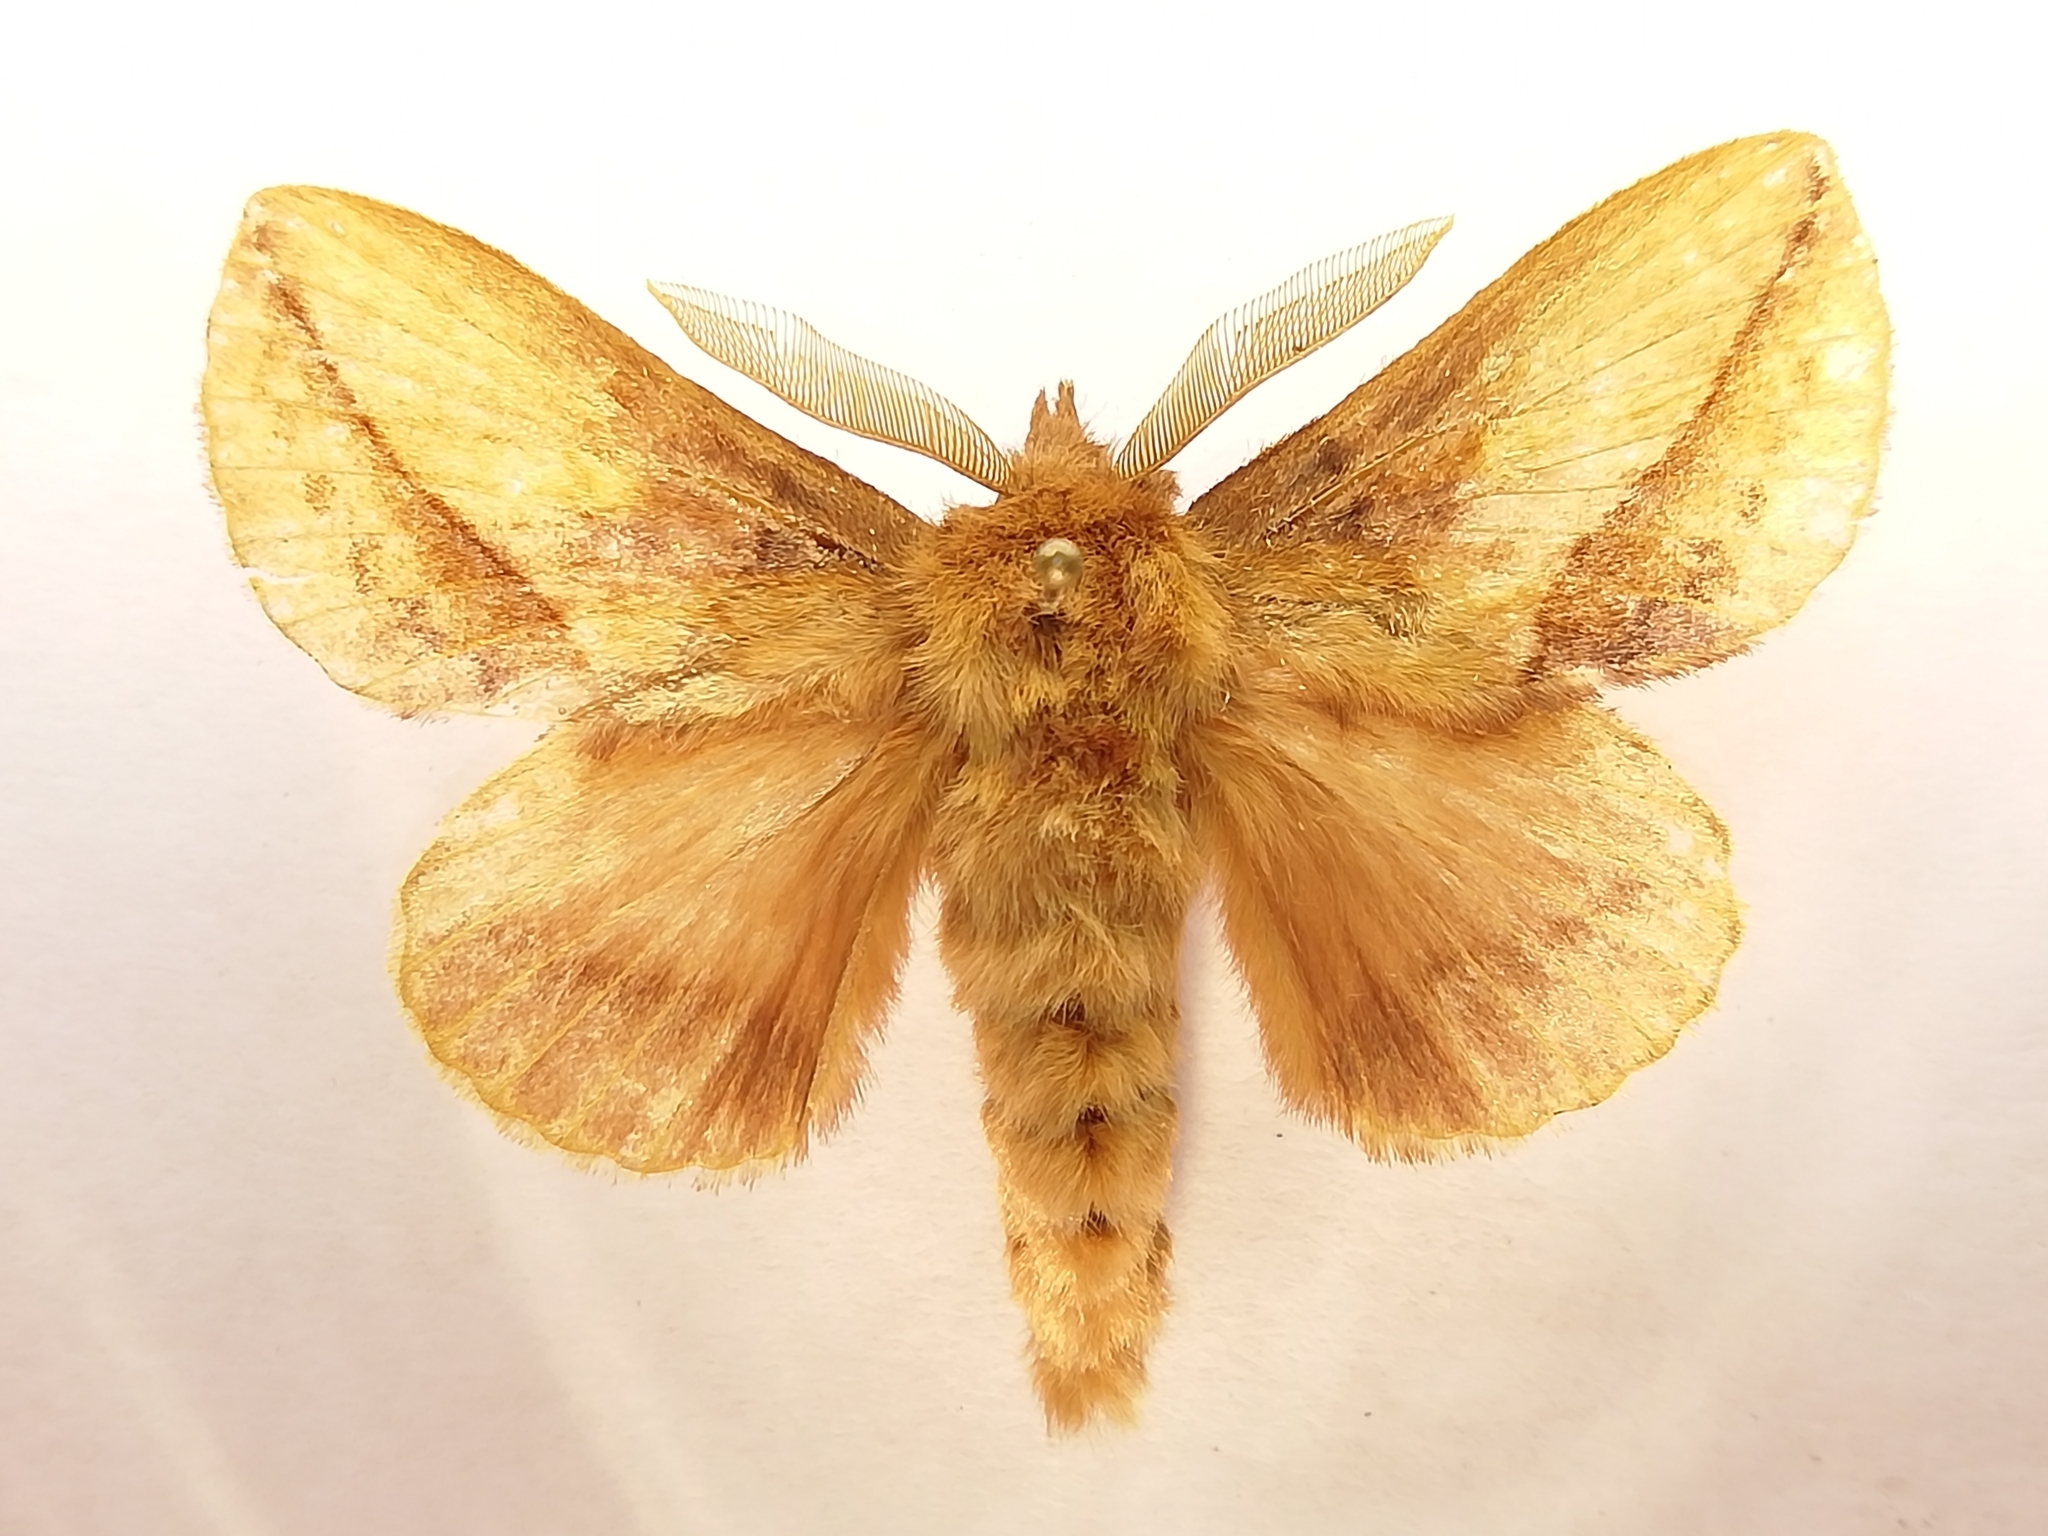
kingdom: Animalia
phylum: Arthropoda
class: Insecta
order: Lepidoptera
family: Lasiocampidae
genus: Euthrix
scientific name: Euthrix potatoria
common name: Drinker
